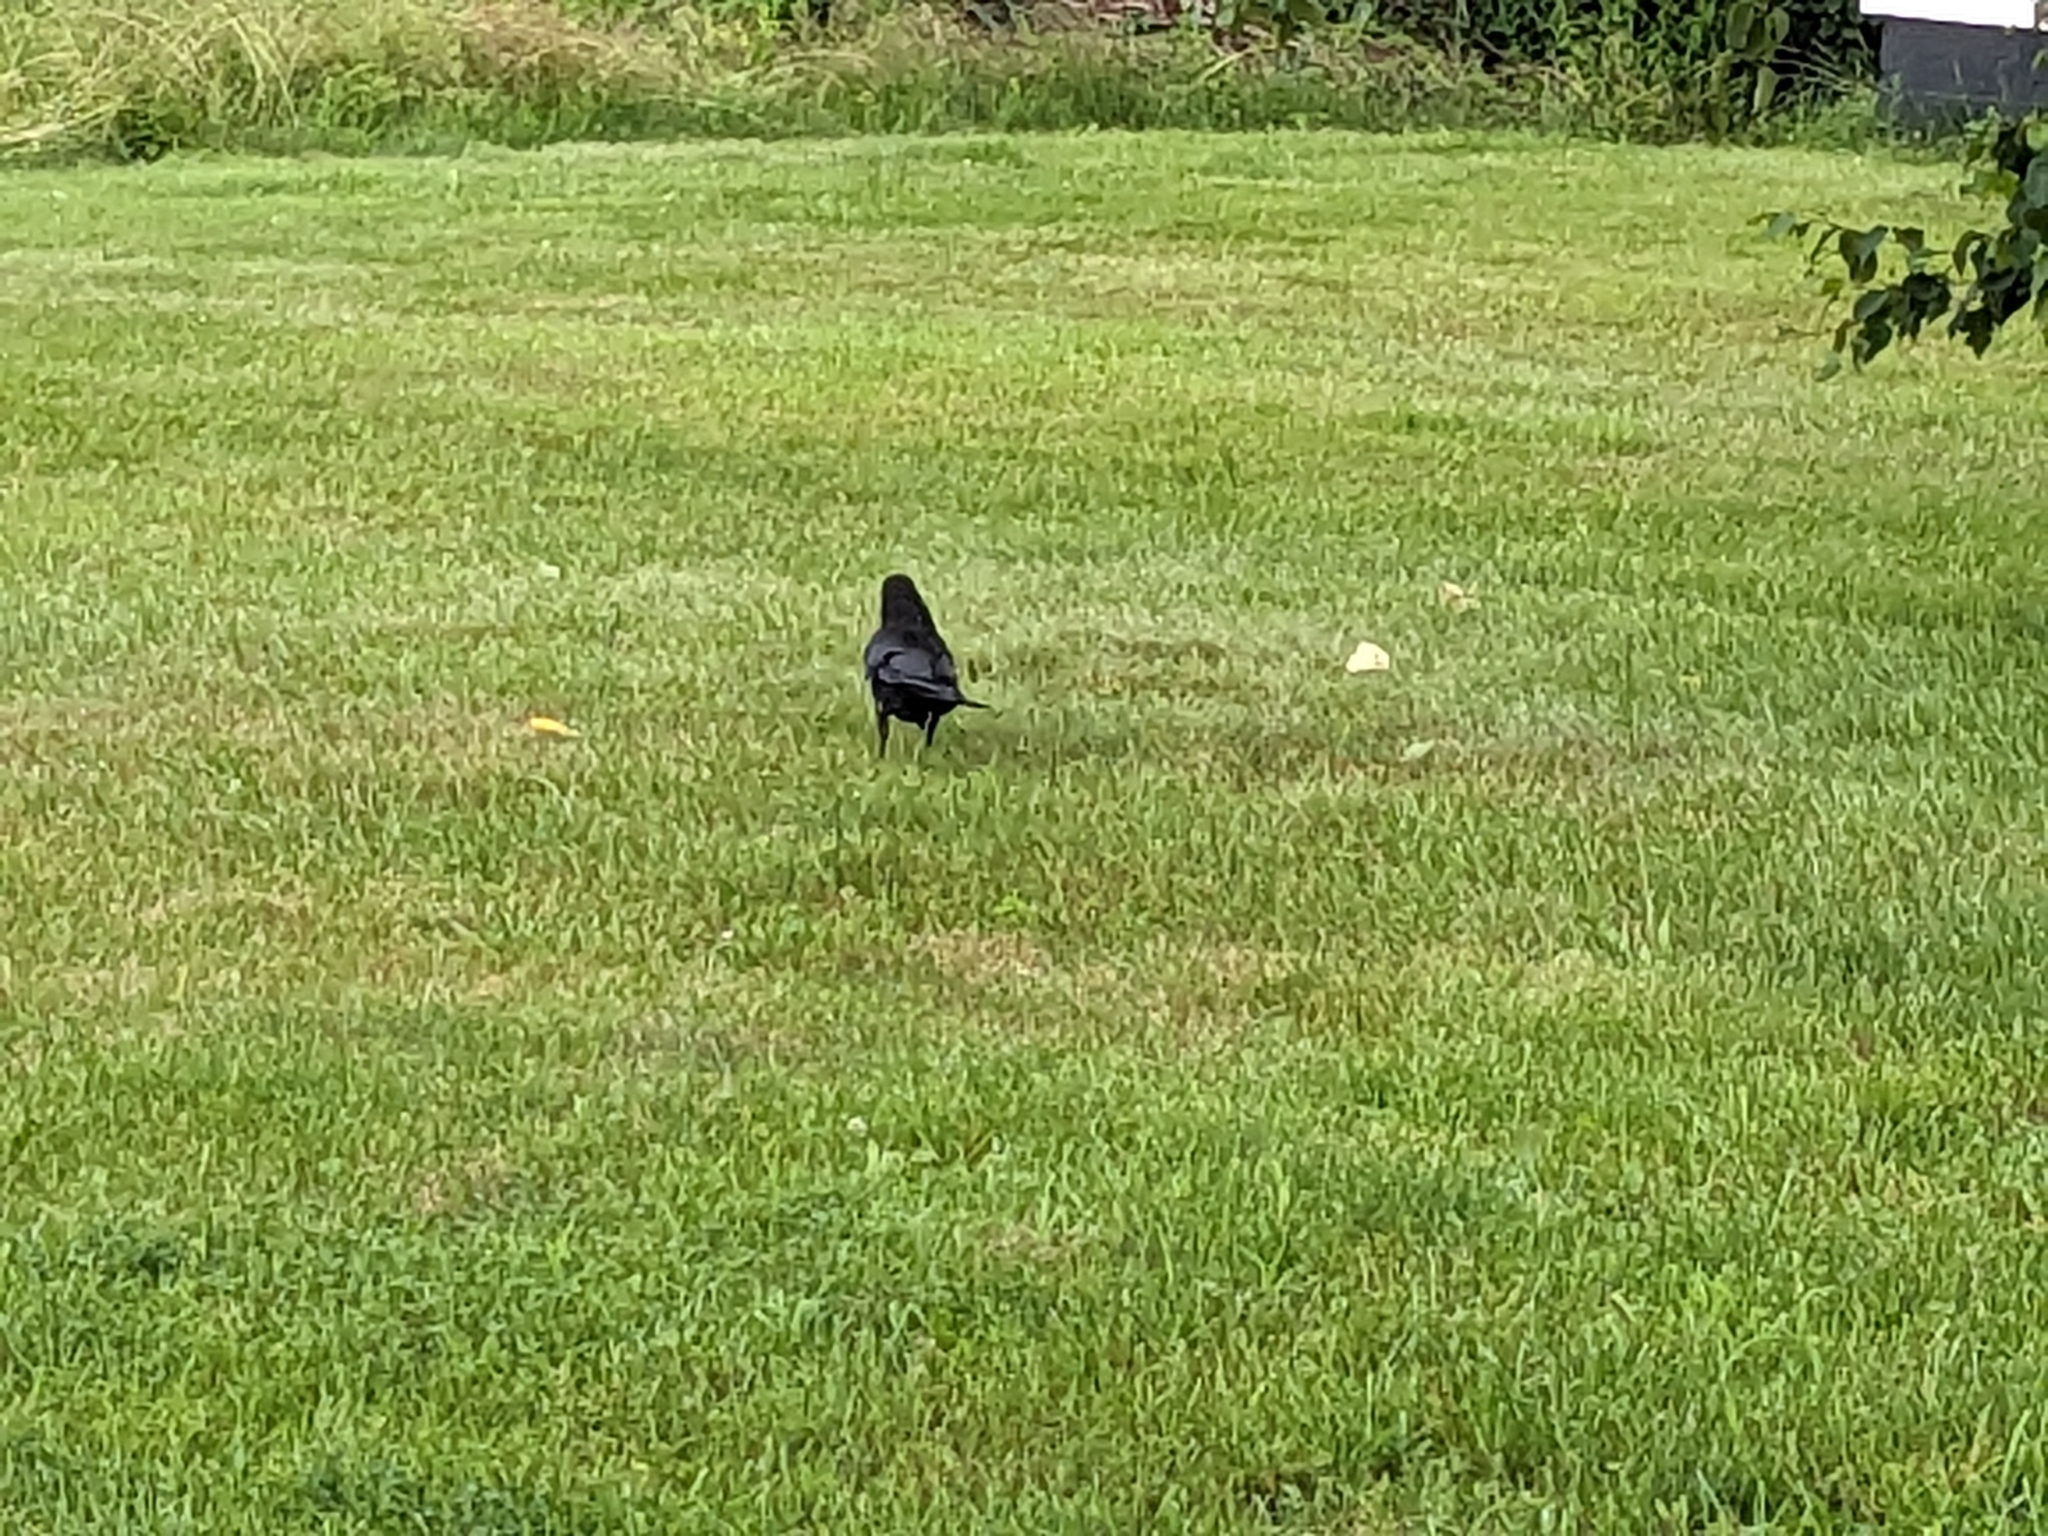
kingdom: Animalia
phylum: Chordata
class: Aves
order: Passeriformes
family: Corvidae
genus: Corvus
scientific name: Corvus brachyrhynchos
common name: American crow
